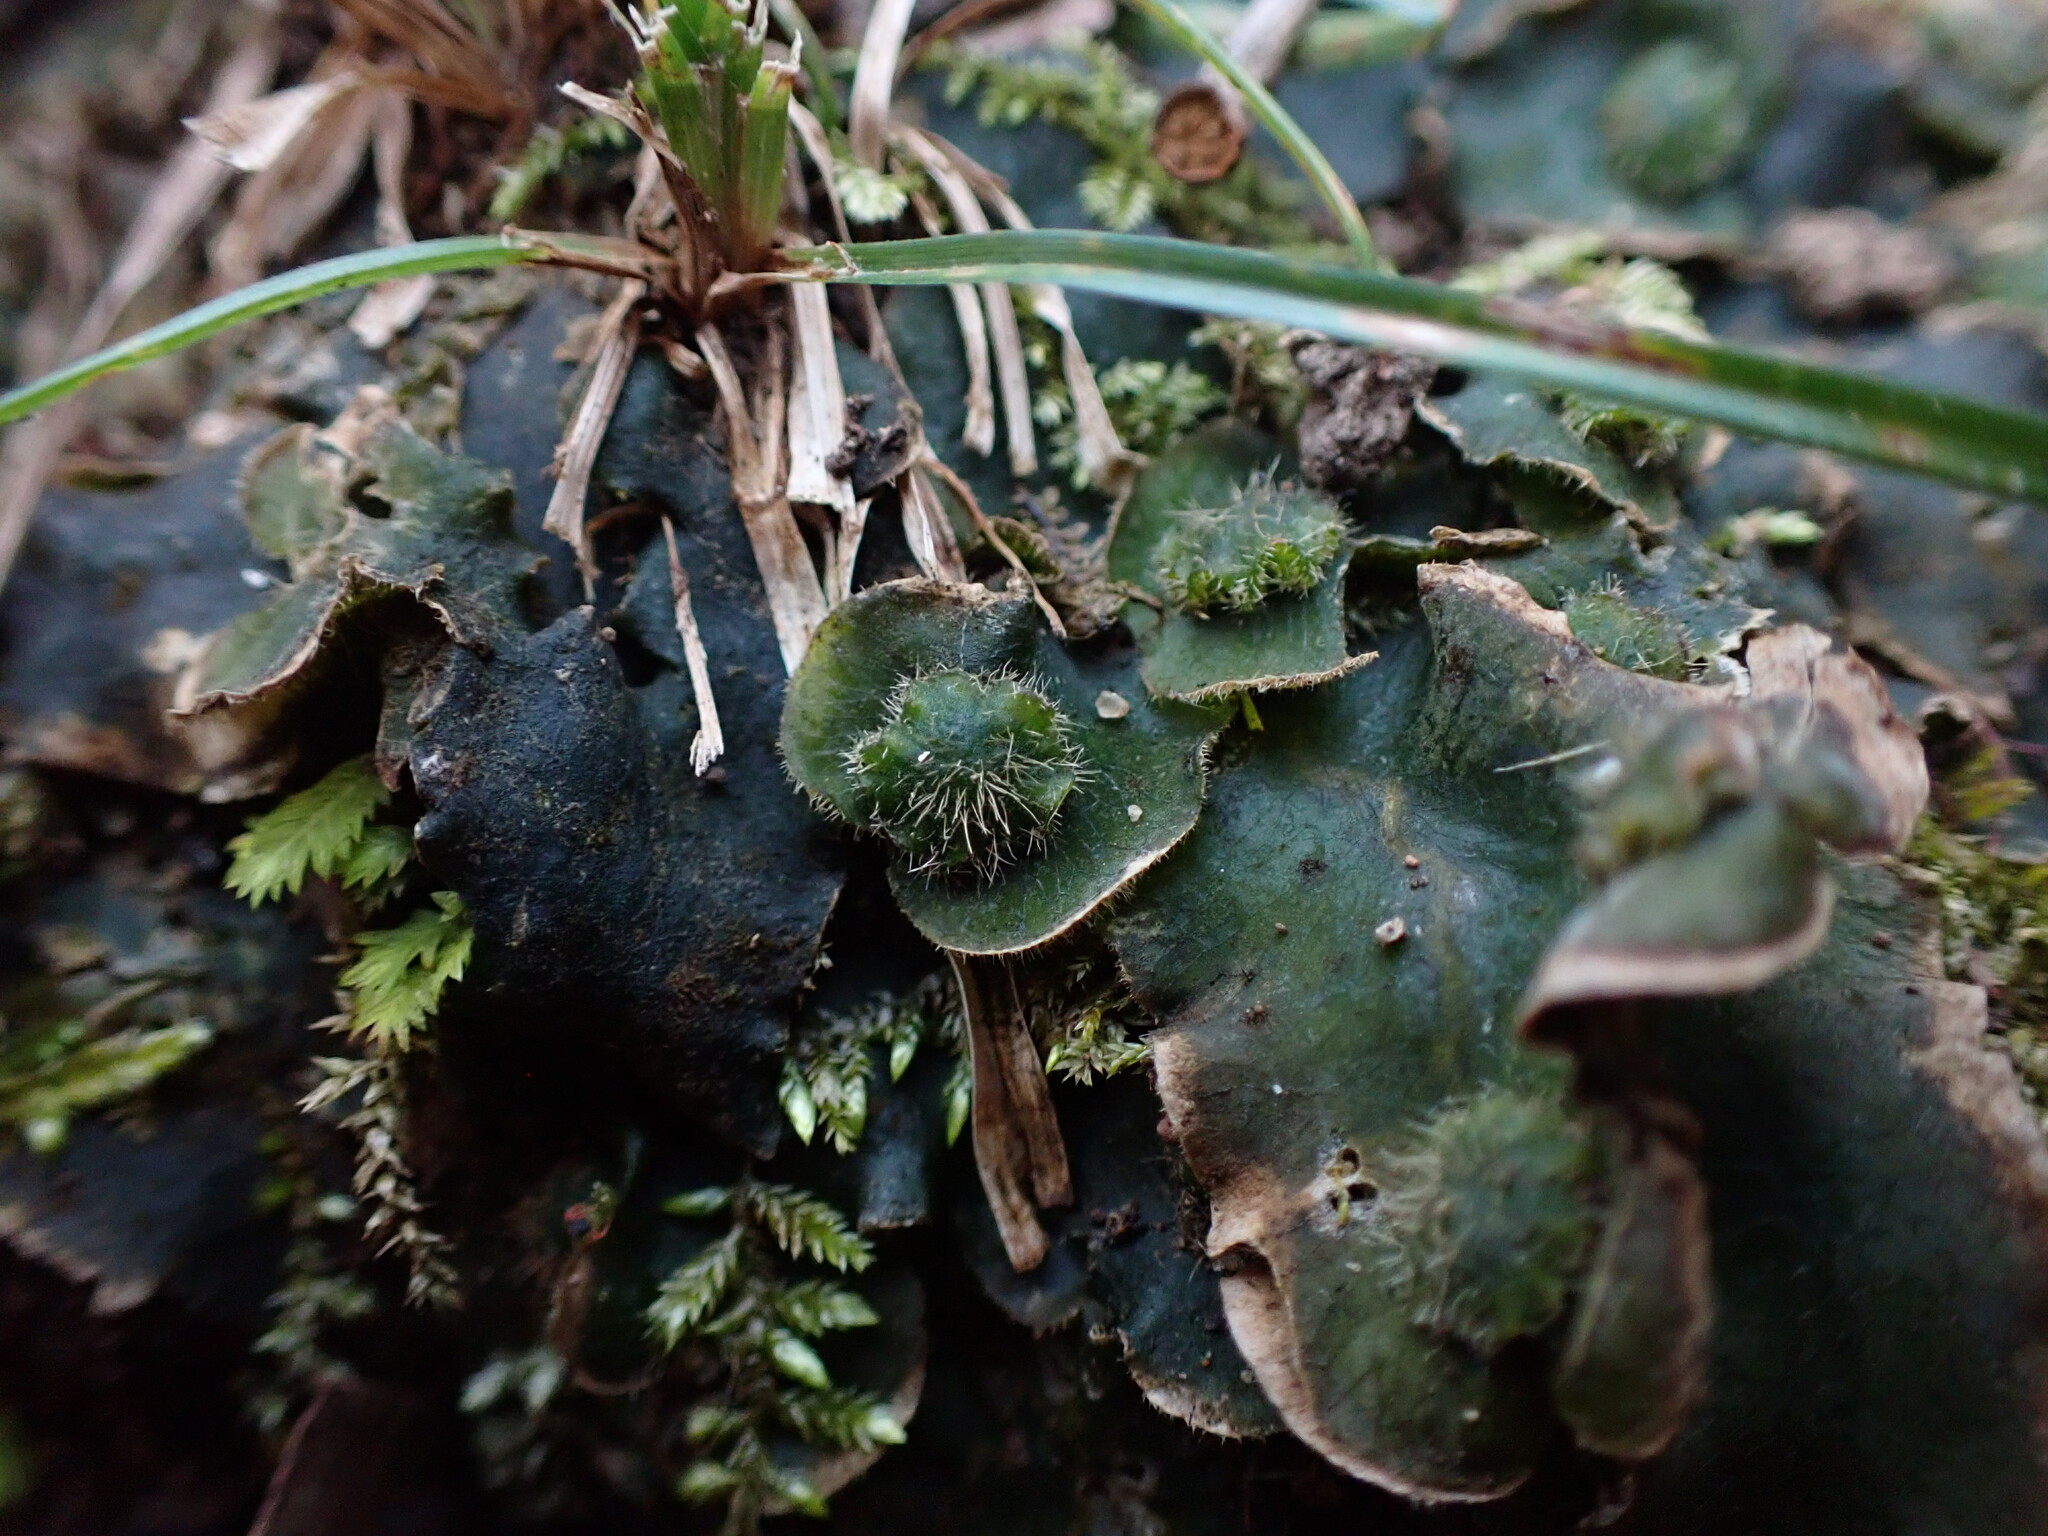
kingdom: Plantae
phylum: Marchantiophyta
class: Marchantiopsida
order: Marchantiales
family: Dumortieraceae
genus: Dumortiera
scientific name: Dumortiera hirsuta
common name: Dumortier's liverwort
